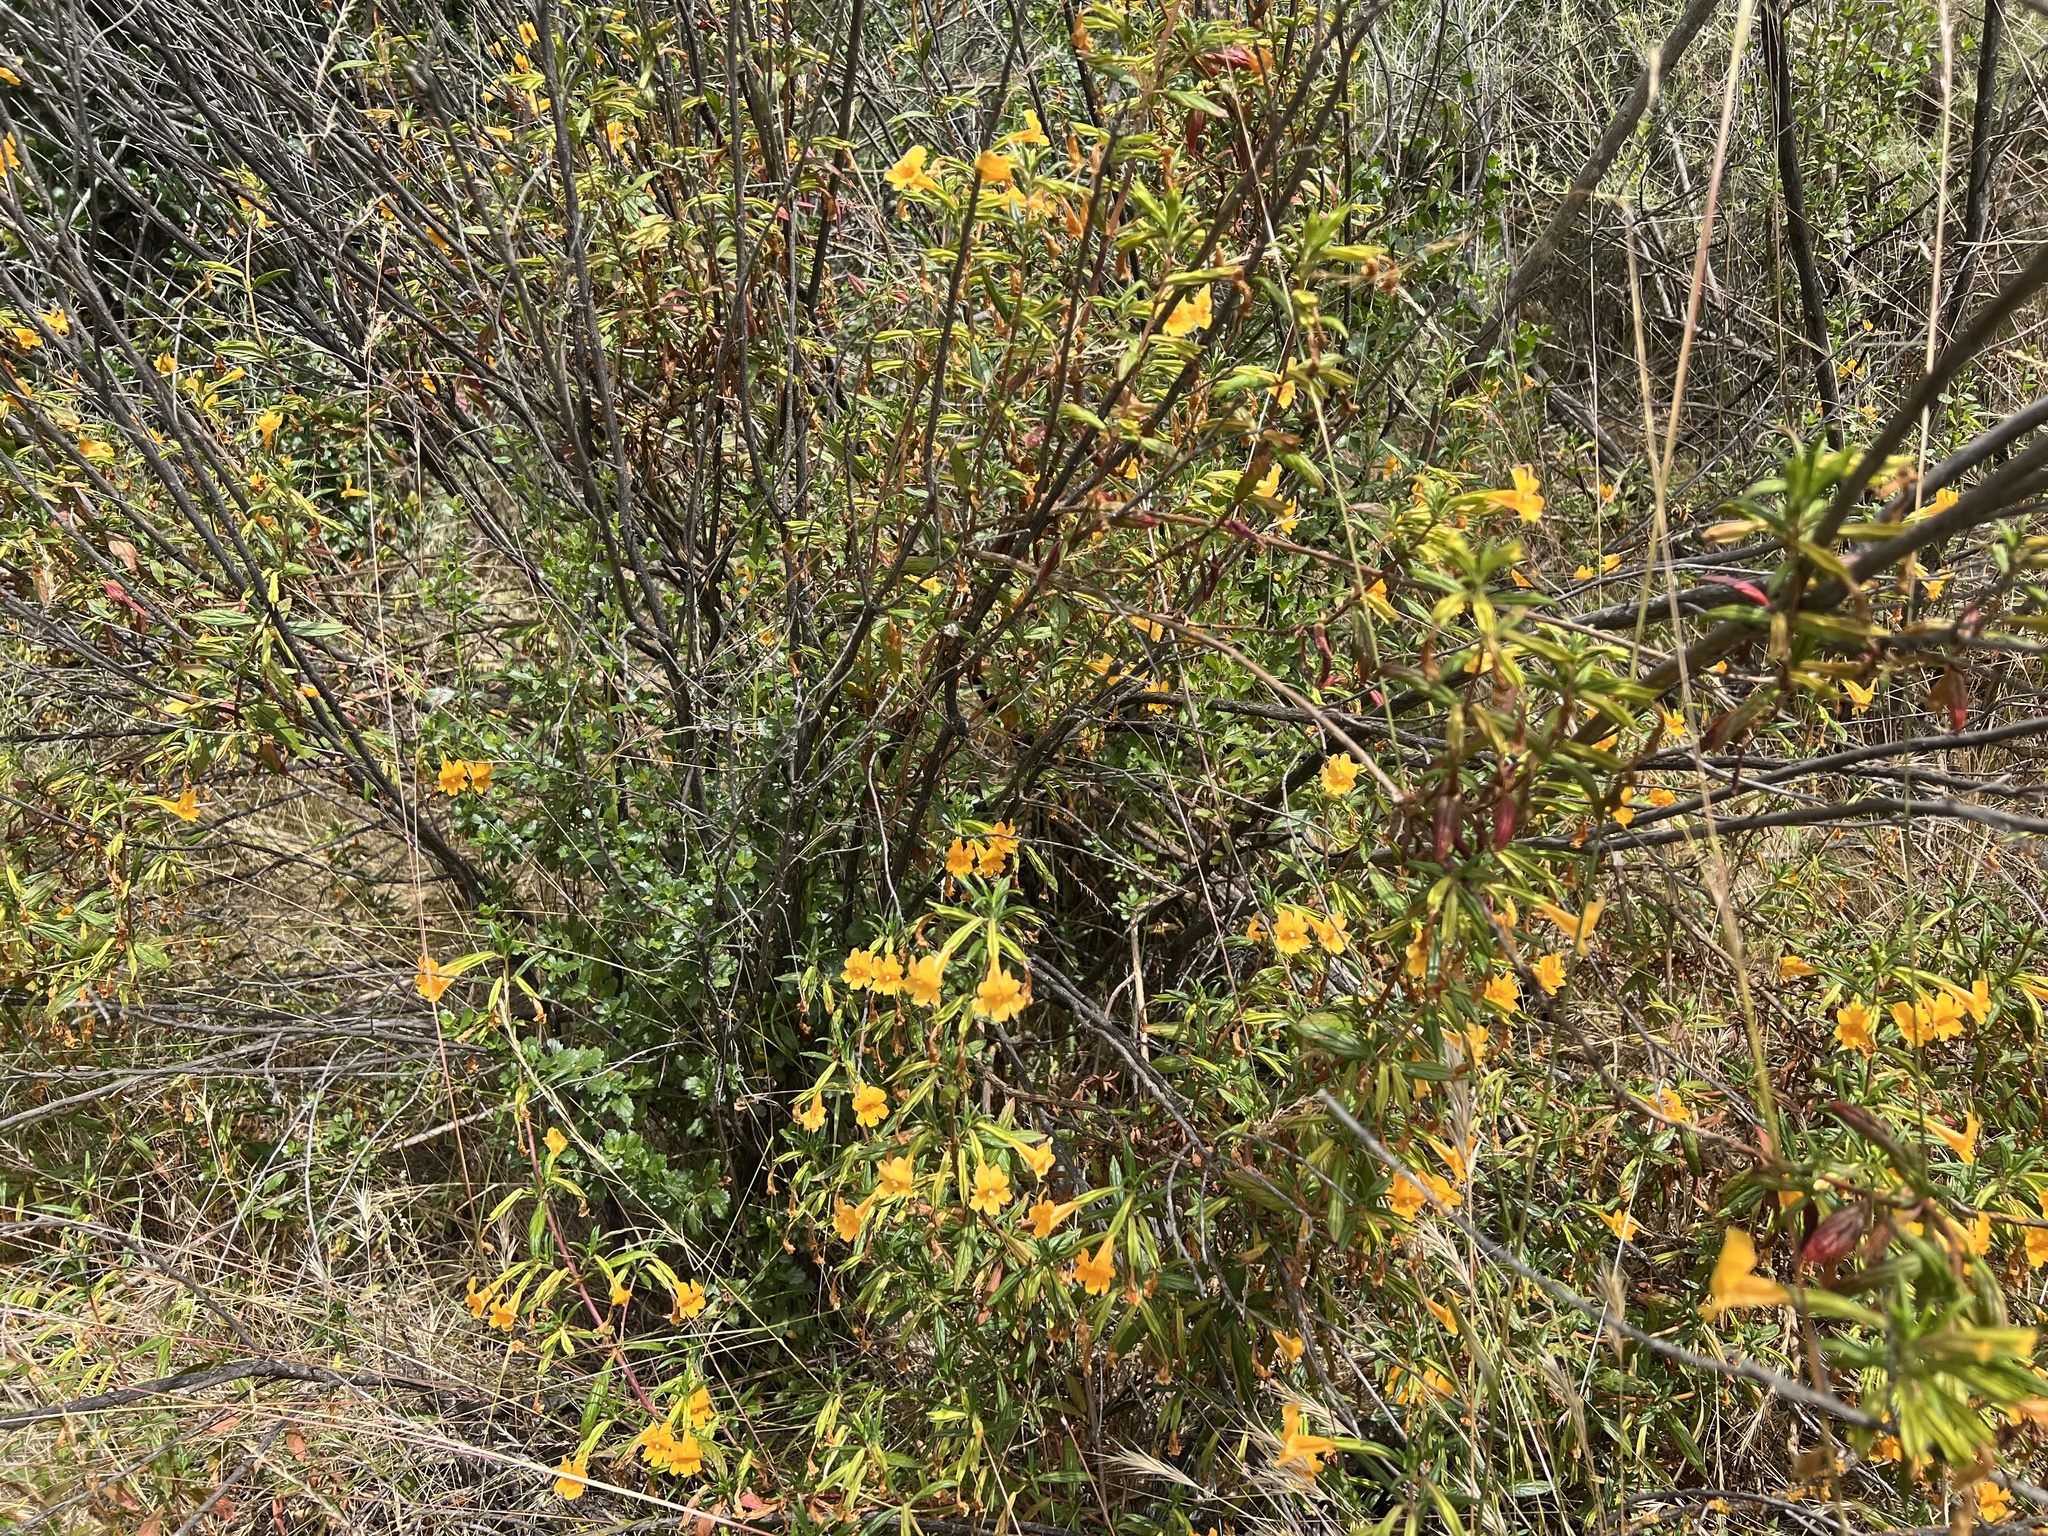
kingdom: Plantae
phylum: Tracheophyta
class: Magnoliopsida
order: Lamiales
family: Phrymaceae
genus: Diplacus
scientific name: Diplacus aurantiacus
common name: Bush monkey-flower
